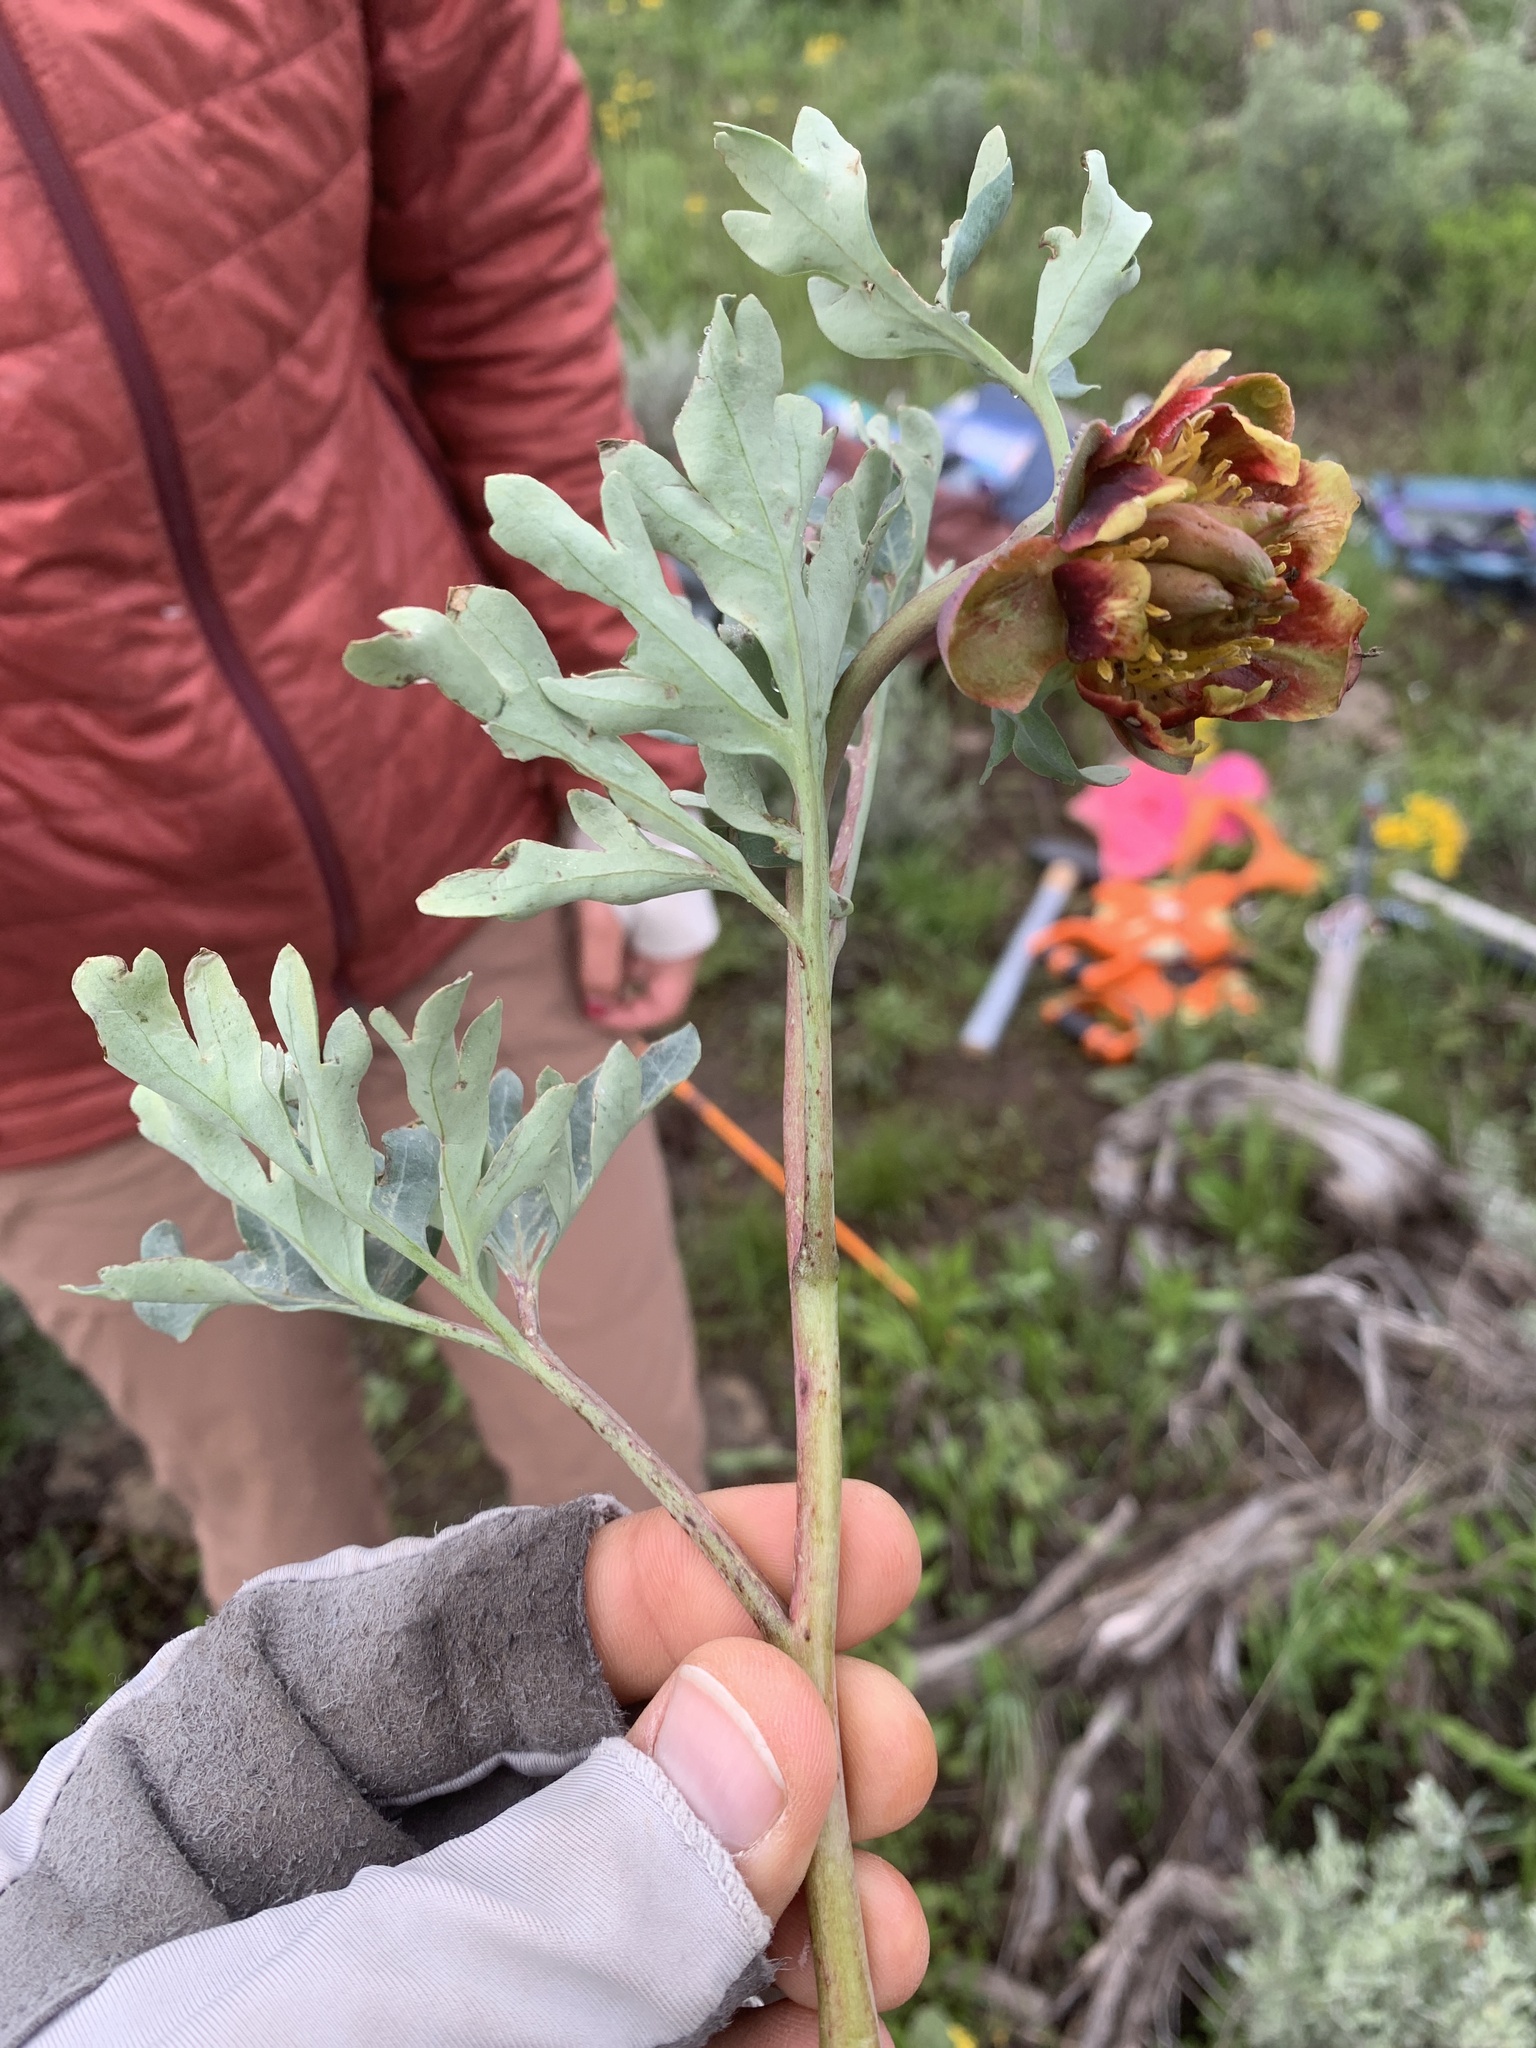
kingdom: Plantae
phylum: Tracheophyta
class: Magnoliopsida
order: Saxifragales
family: Paeoniaceae
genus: Paeonia
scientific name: Paeonia brownii
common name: Brown's peony
